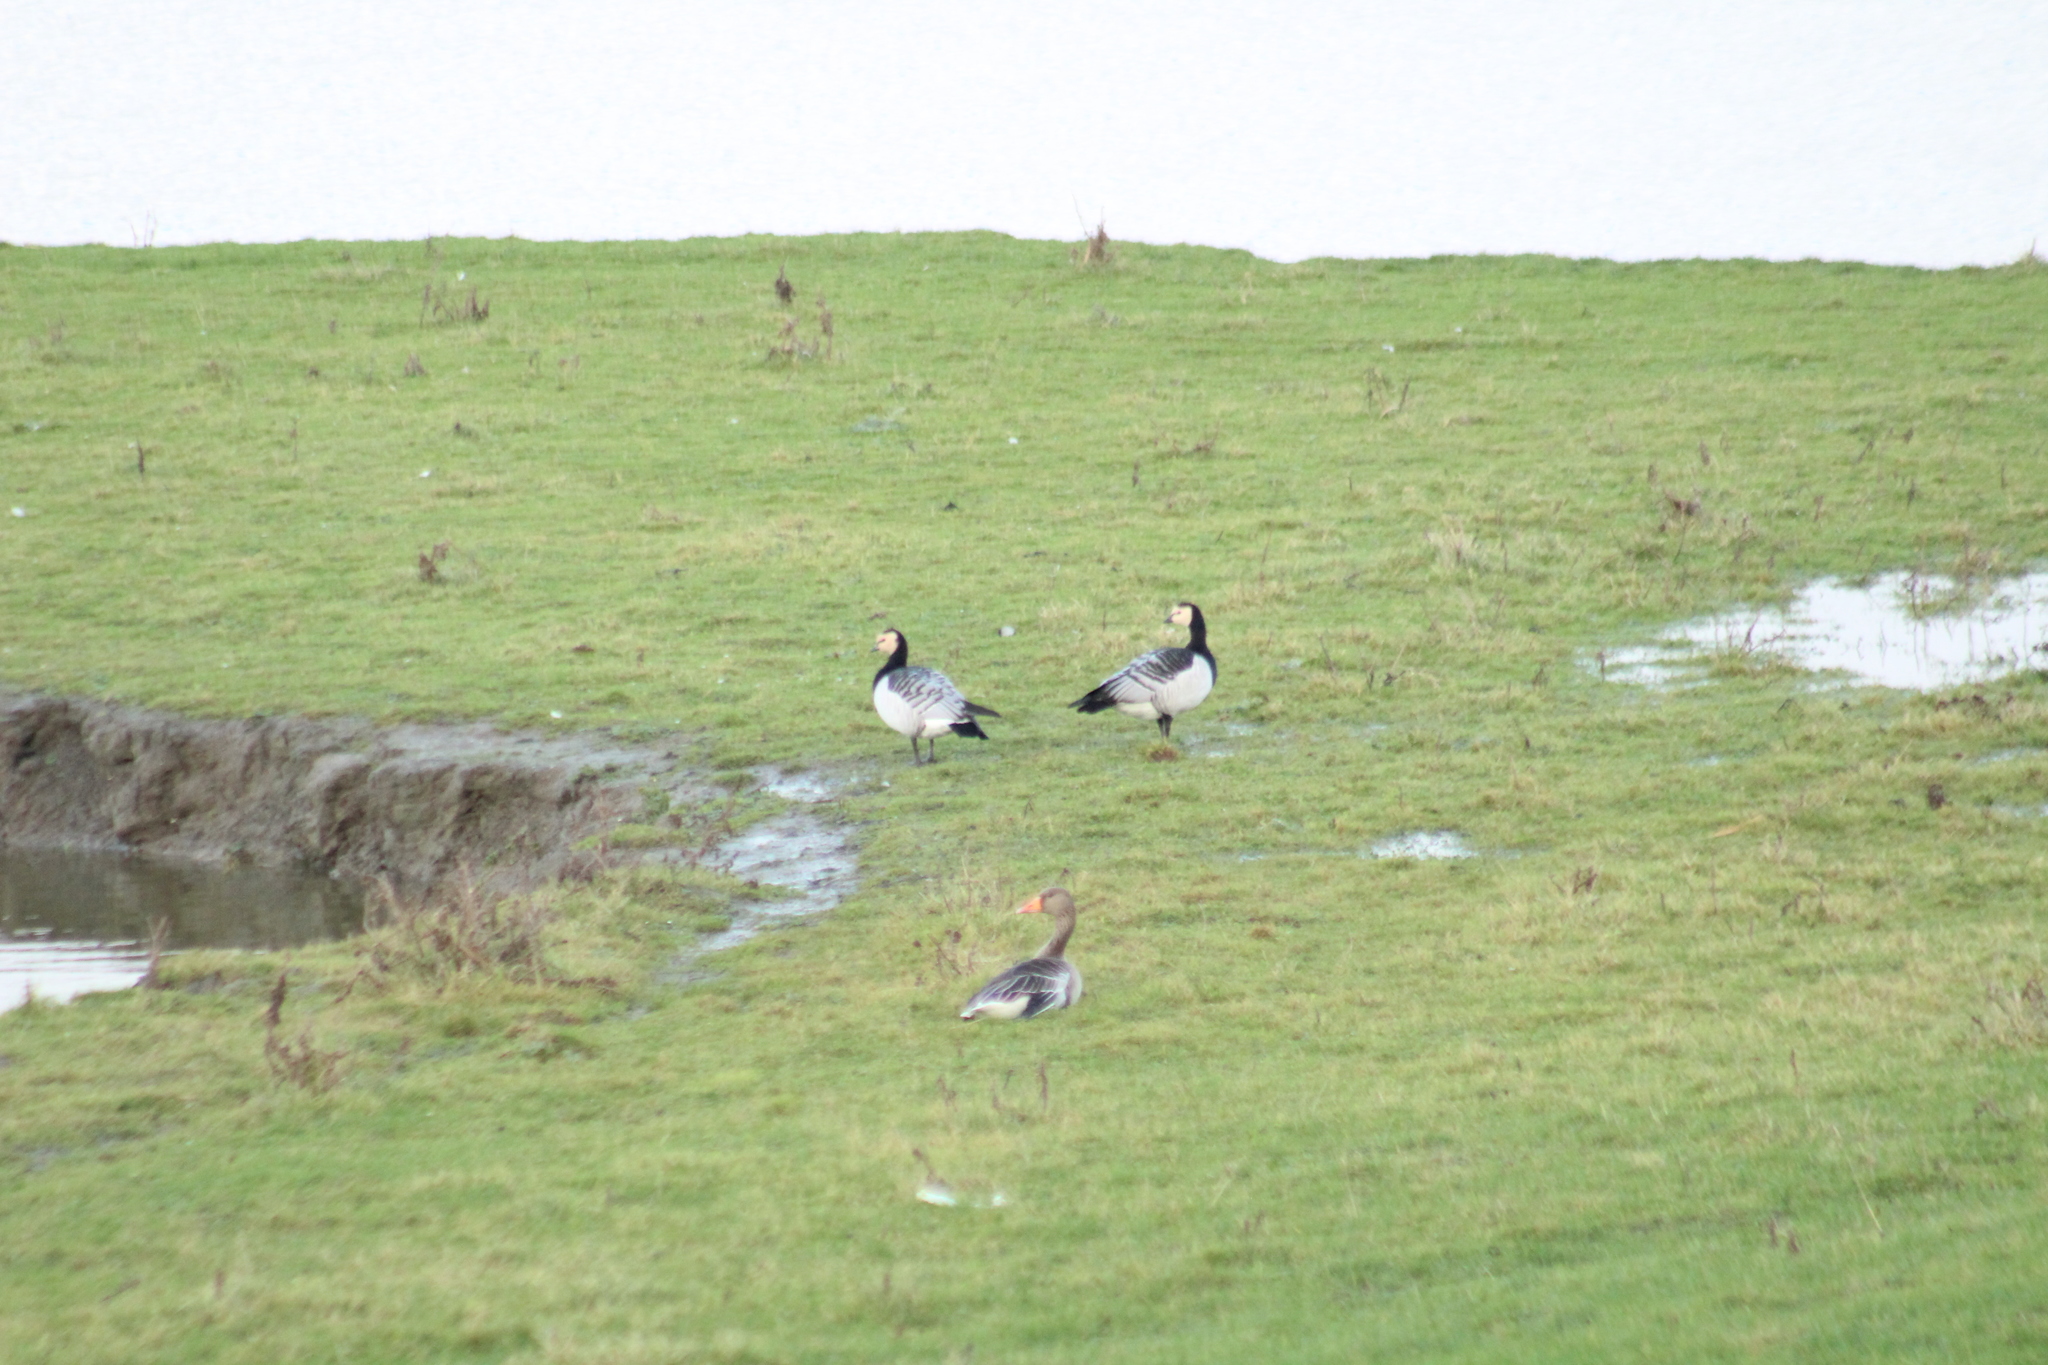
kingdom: Animalia
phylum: Chordata
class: Aves
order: Anseriformes
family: Anatidae
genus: Branta
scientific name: Branta leucopsis
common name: Barnacle goose
